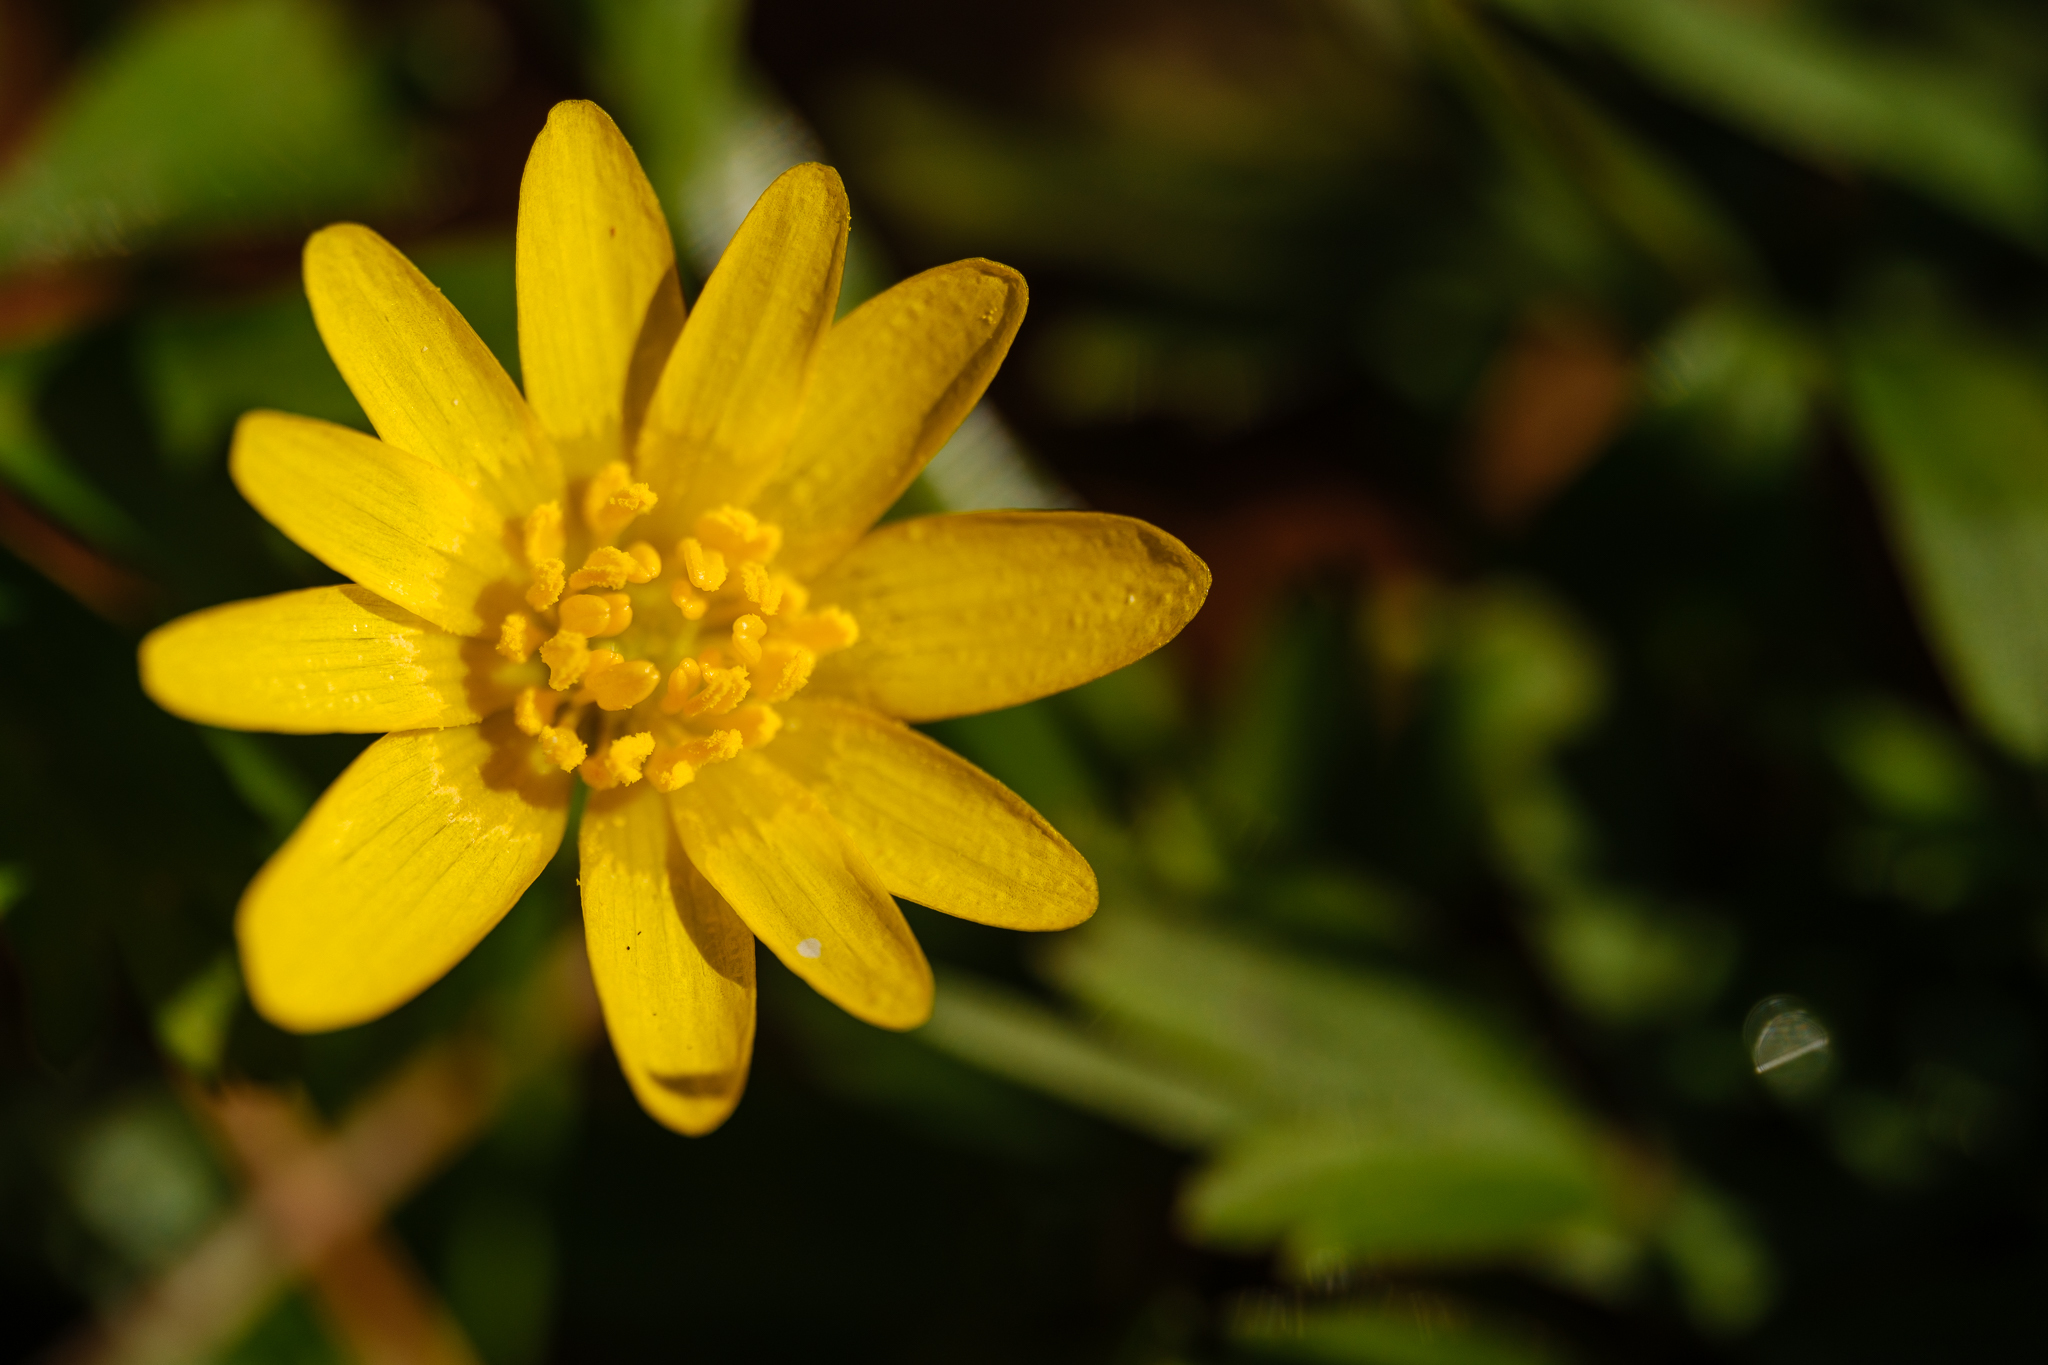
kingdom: Plantae
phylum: Tracheophyta
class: Magnoliopsida
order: Ranunculales
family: Ranunculaceae
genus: Ficaria
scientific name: Ficaria verna
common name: Lesser celandine
